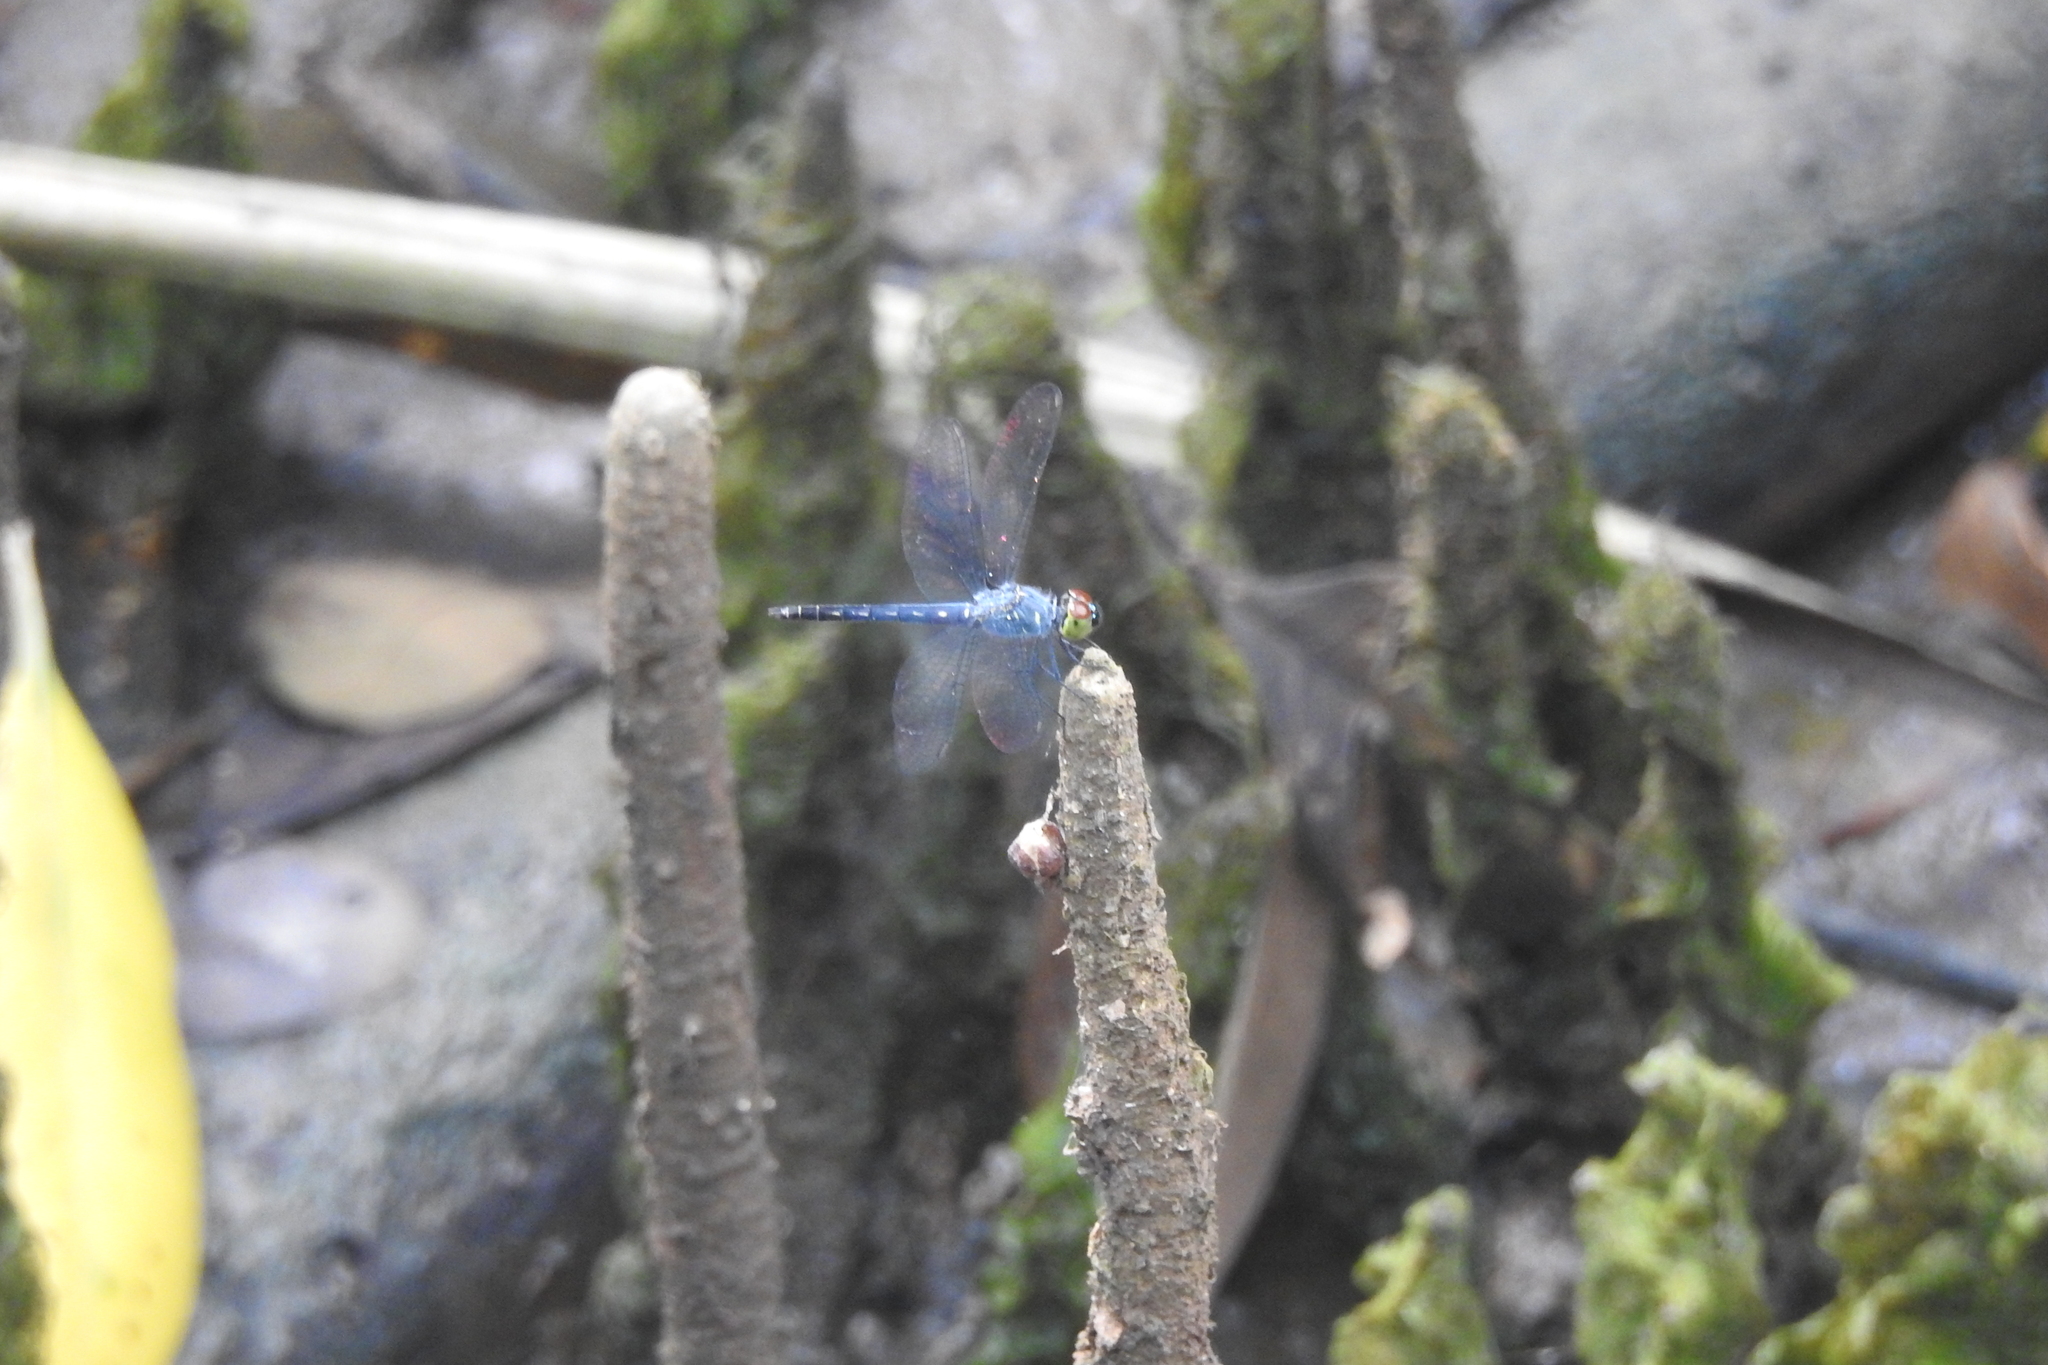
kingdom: Animalia
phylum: Arthropoda
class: Insecta
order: Odonata
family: Libellulidae
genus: Raphismia
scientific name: Raphismia bispina
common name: Mangrove dwarf
